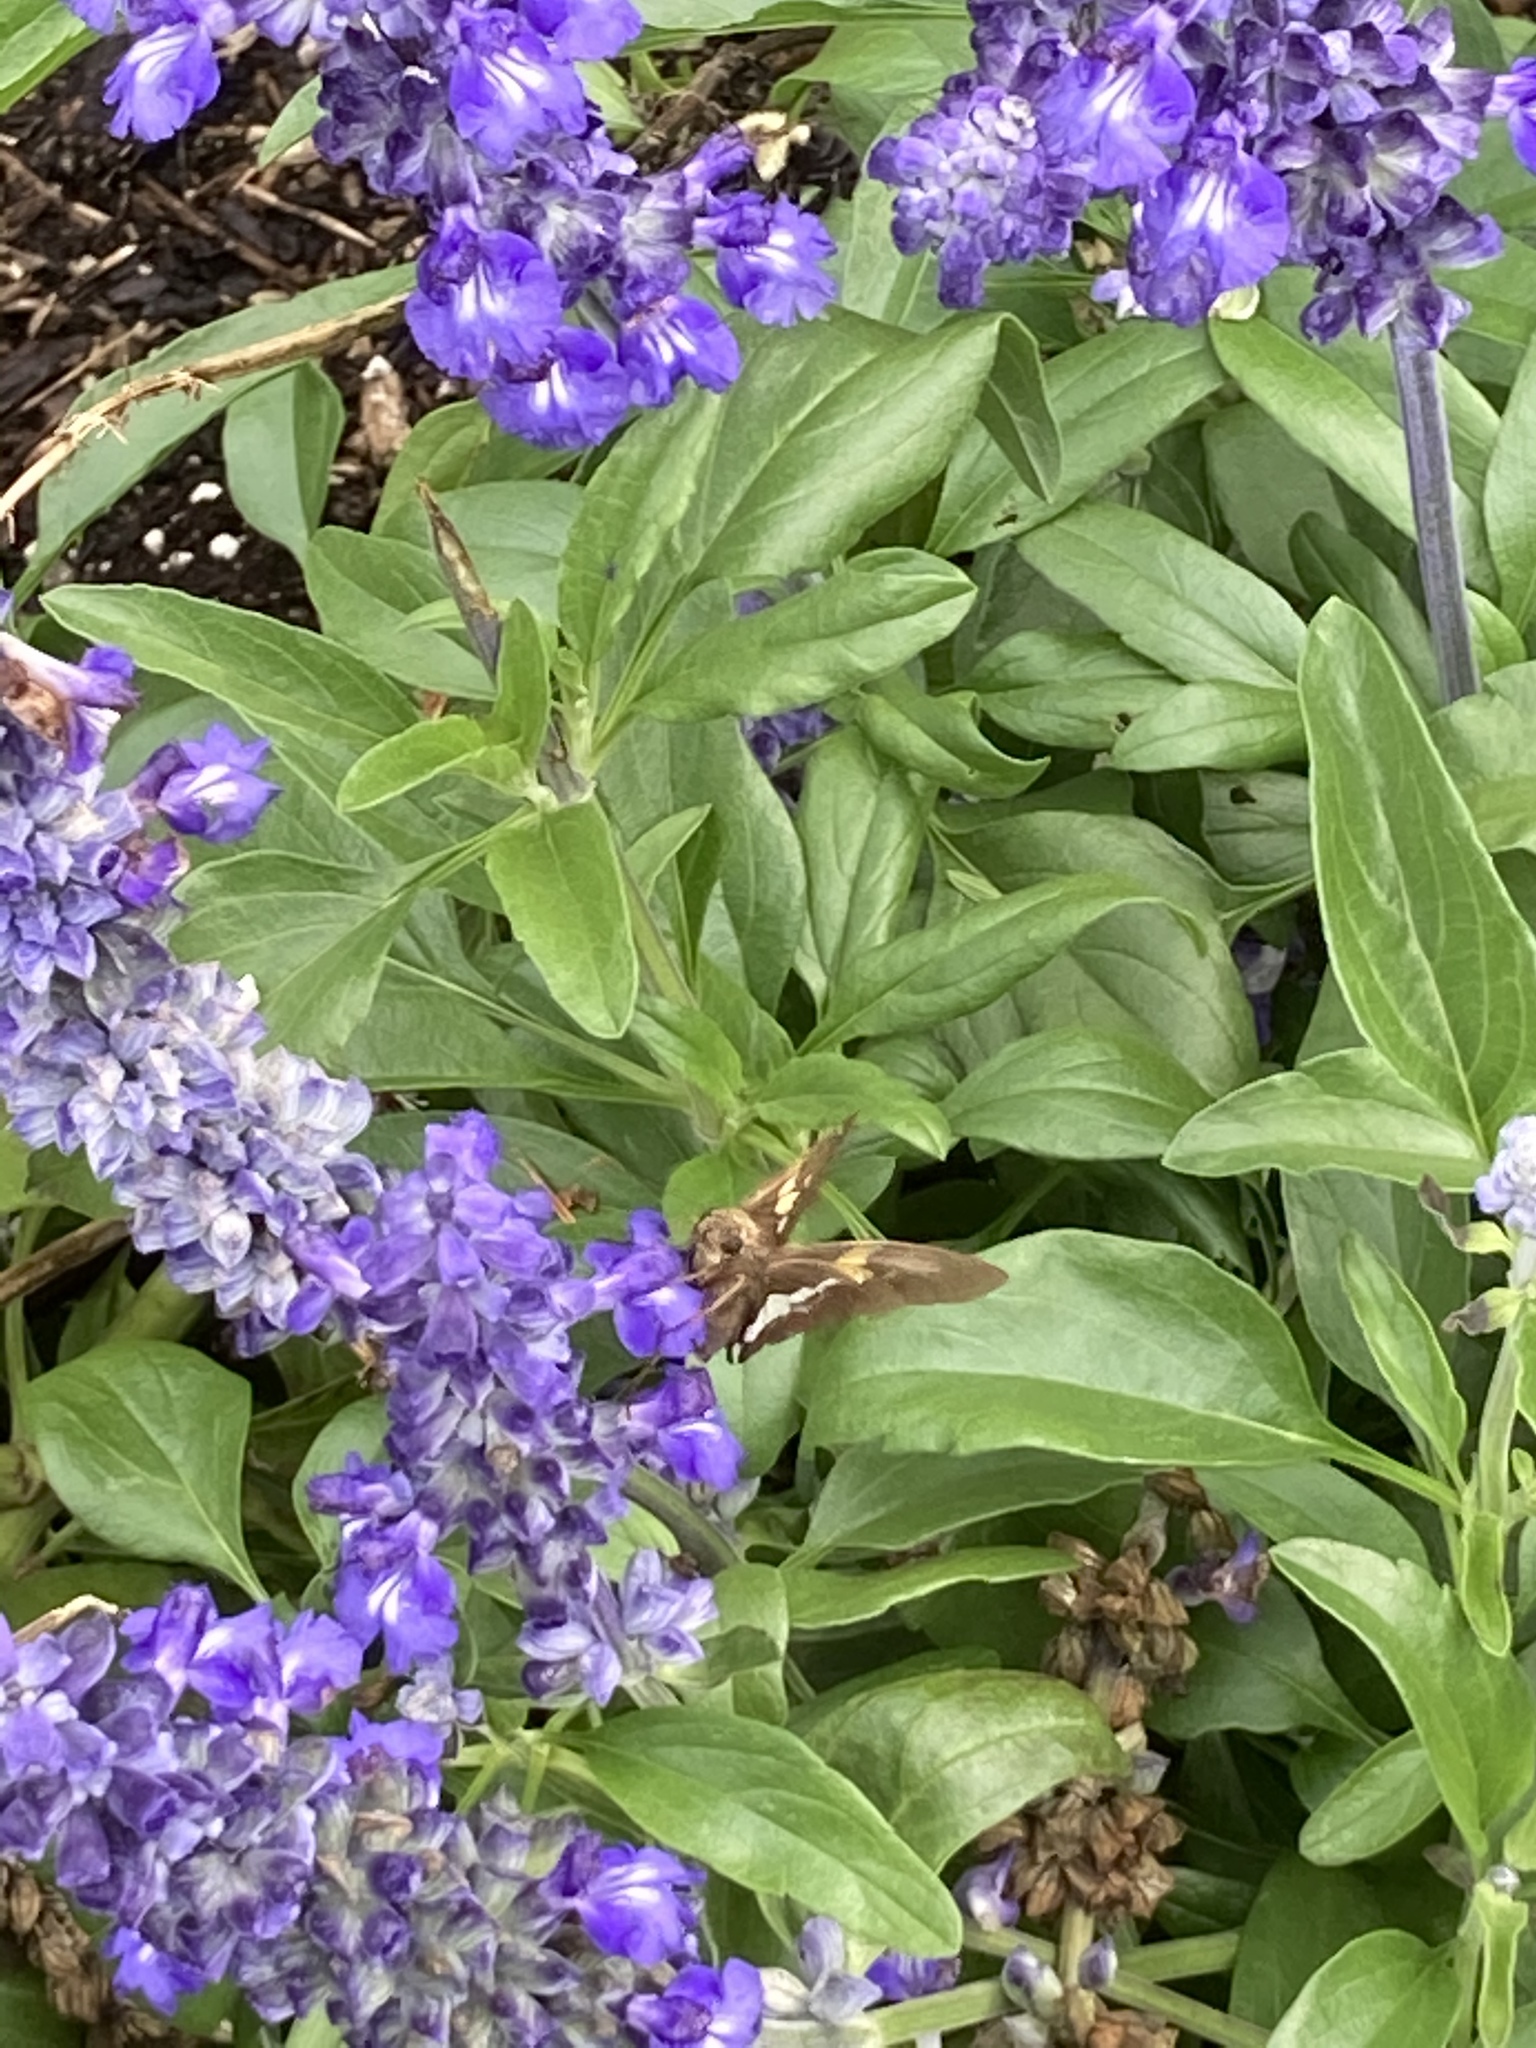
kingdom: Animalia
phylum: Arthropoda
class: Insecta
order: Lepidoptera
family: Hesperiidae
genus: Epargyreus
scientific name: Epargyreus clarus
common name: Silver-spotted skipper
